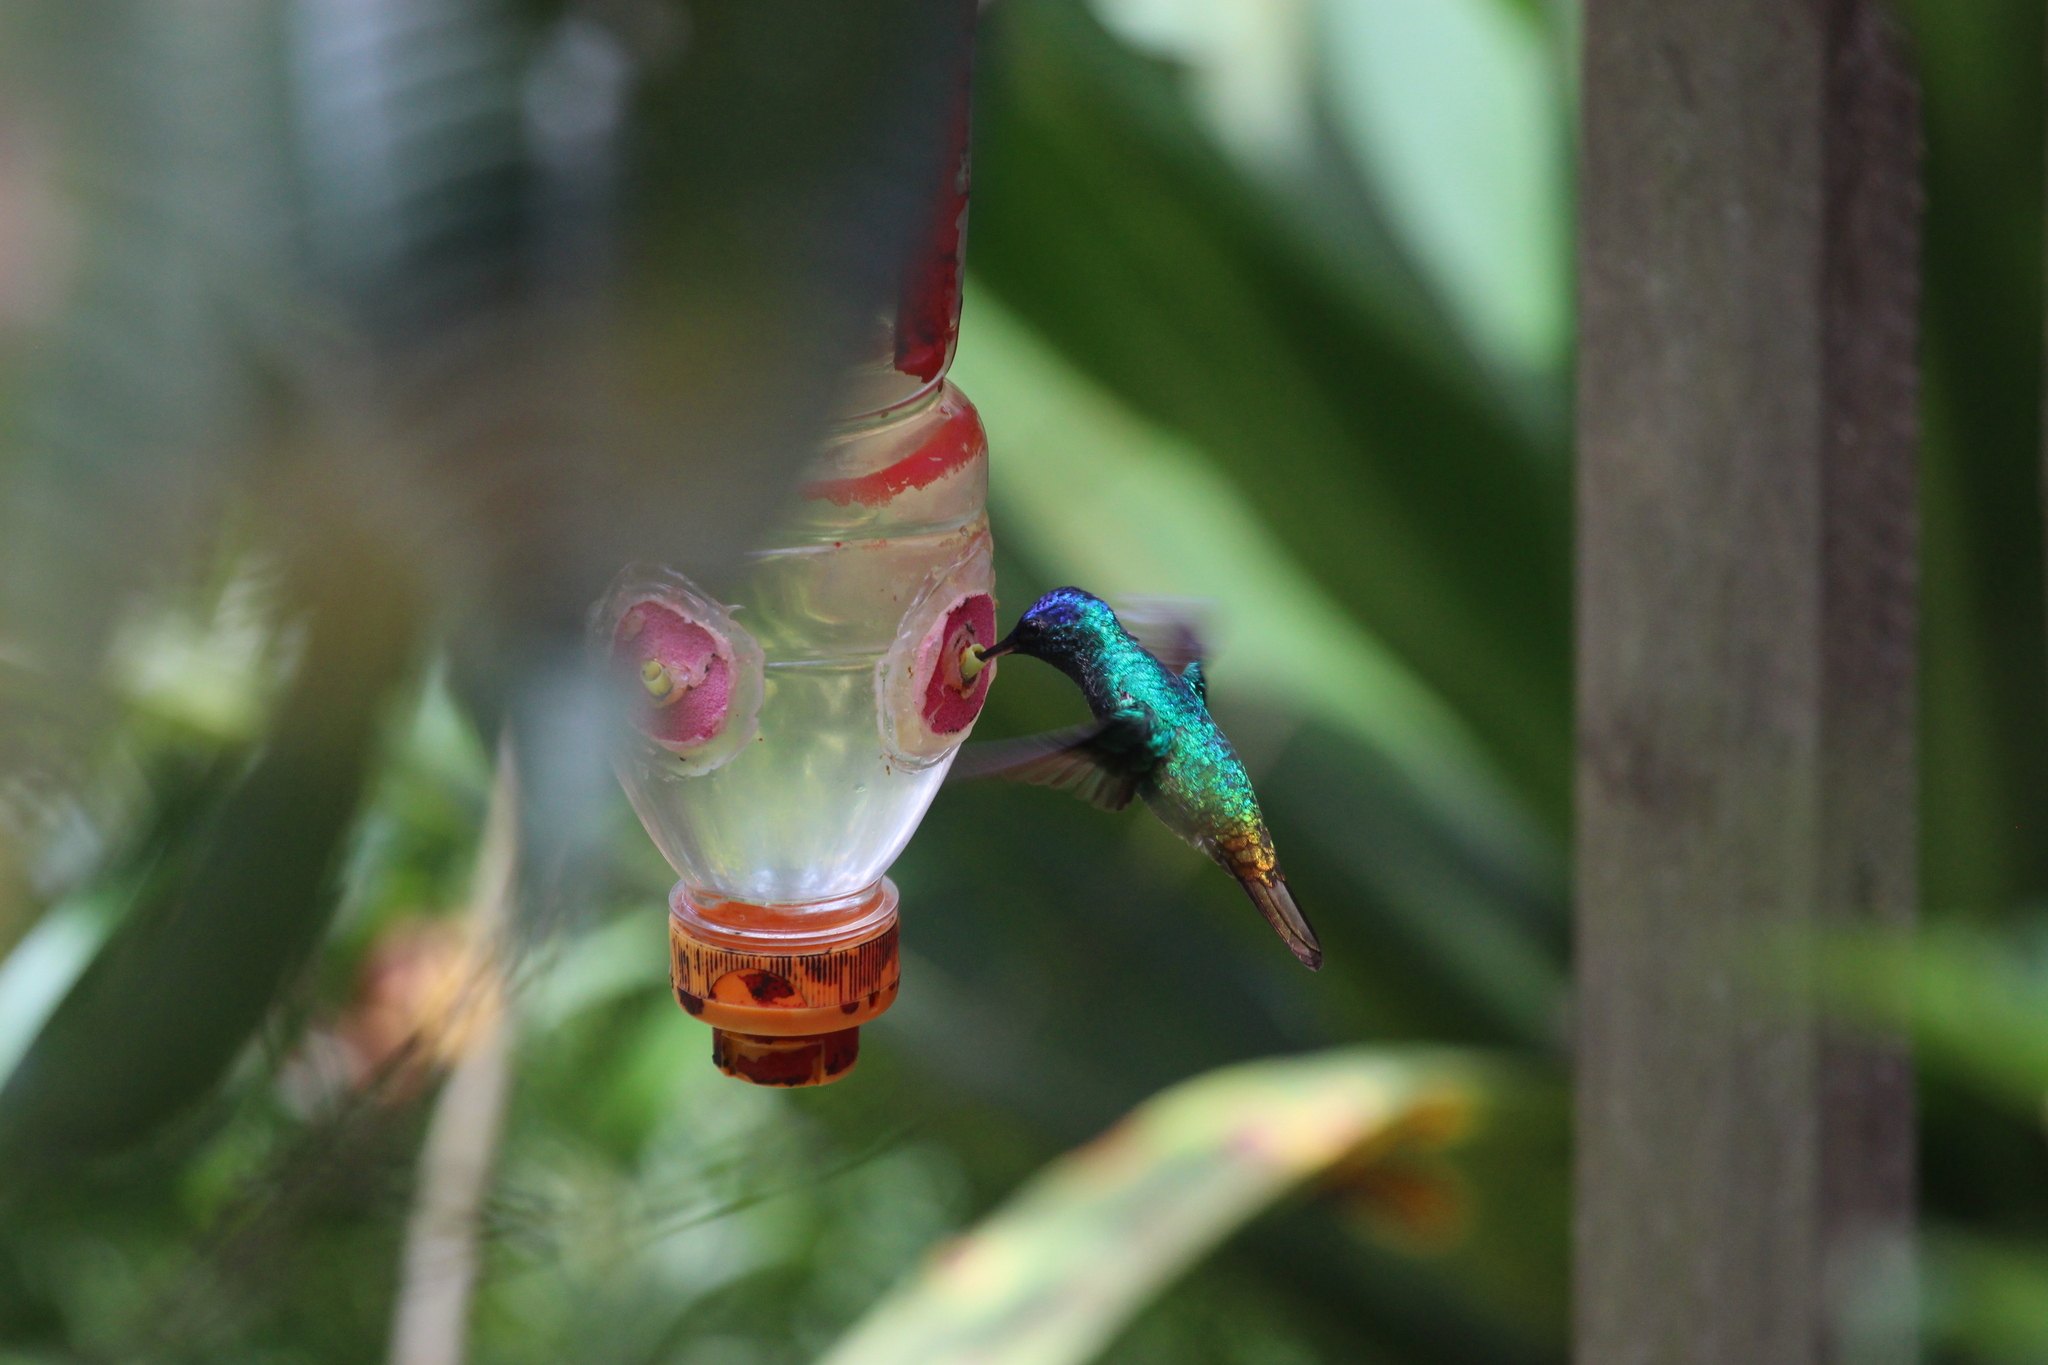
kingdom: Animalia
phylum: Chordata
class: Aves
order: Apodiformes
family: Trochilidae
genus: Chrysuronia
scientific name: Chrysuronia oenone
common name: Golden-tailed sapphire
